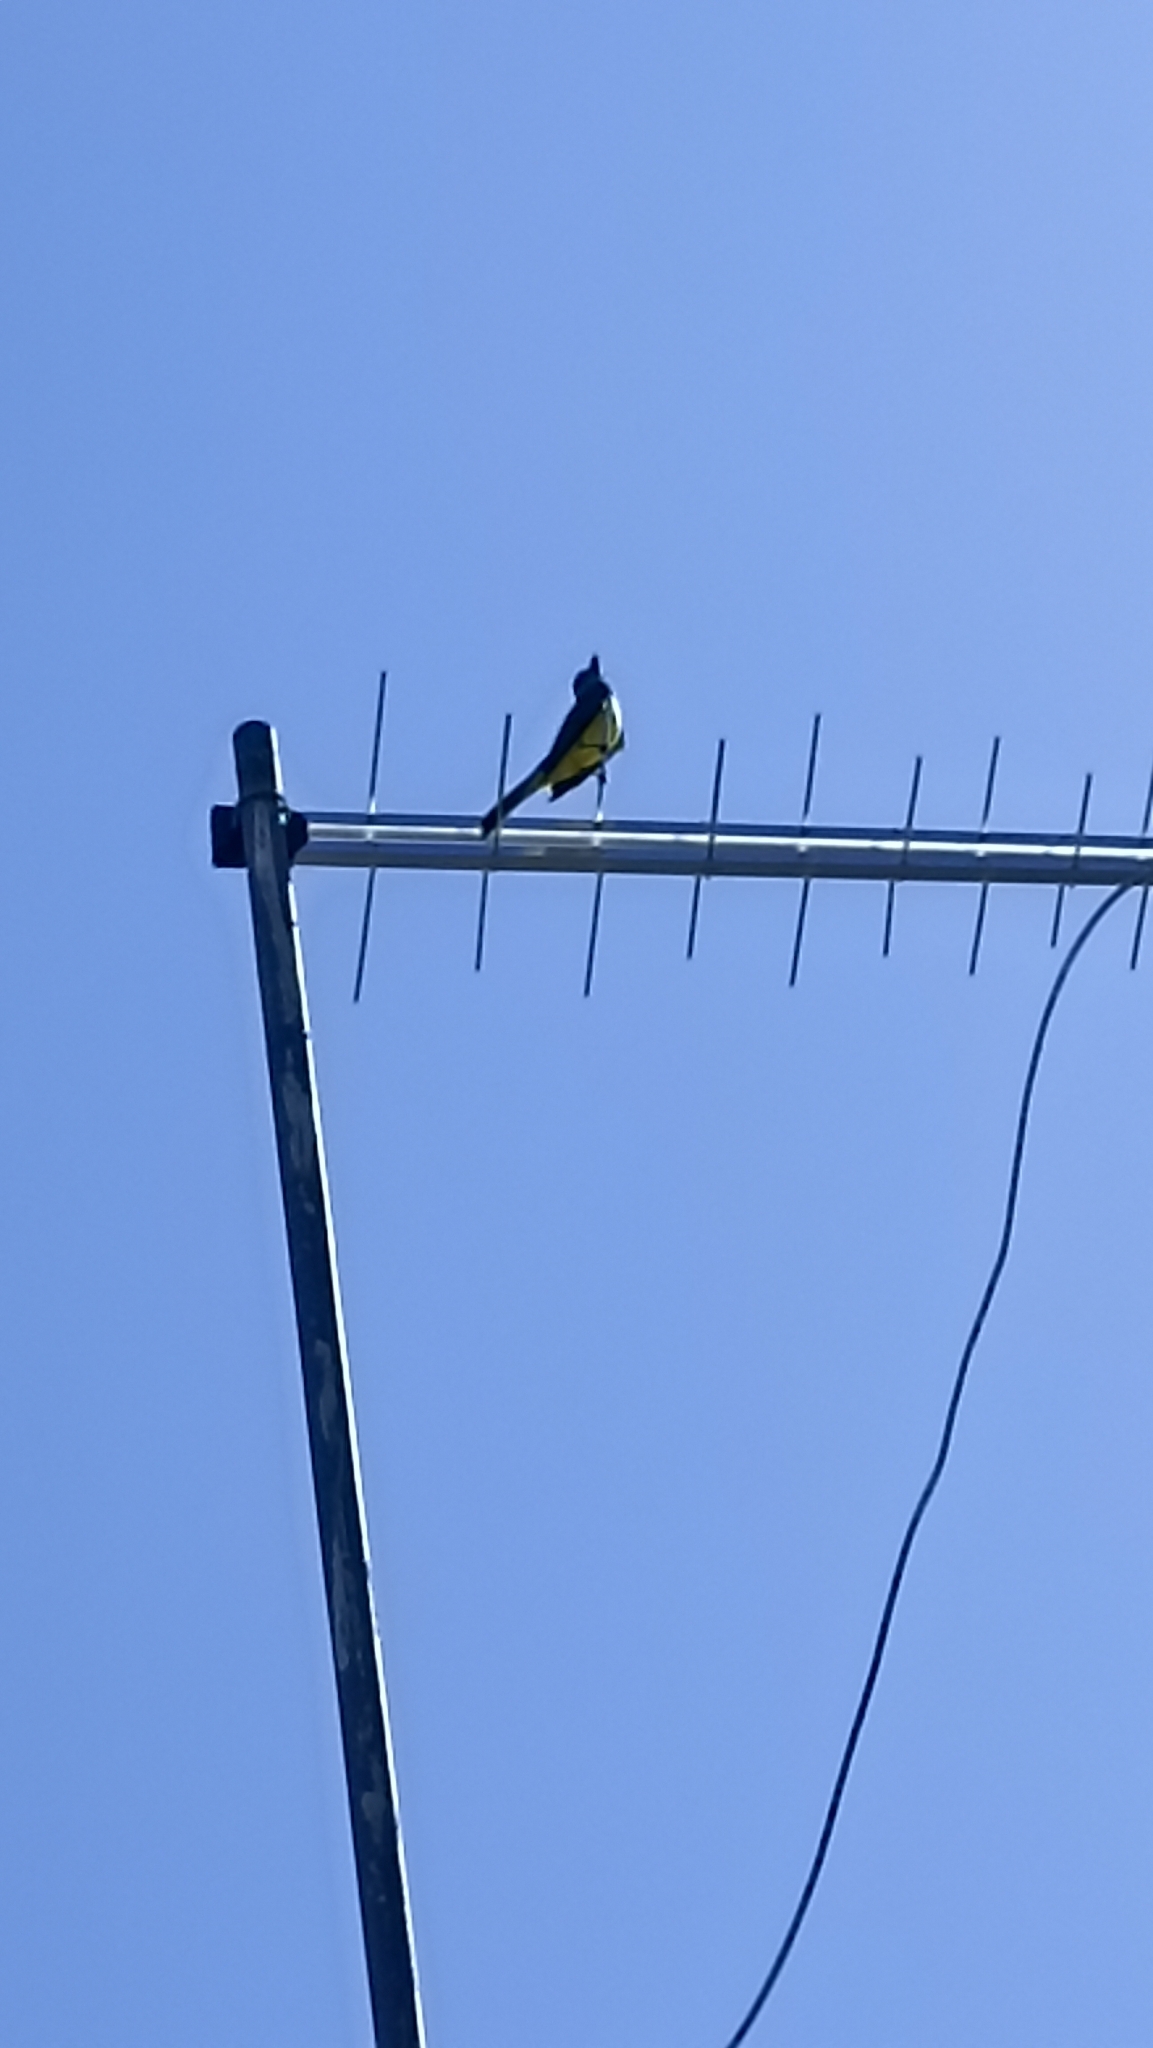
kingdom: Animalia
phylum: Chordata
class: Aves
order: Passeriformes
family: Tyrannidae
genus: Tyrannus
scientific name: Tyrannus melancholicus
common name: Tropical kingbird
